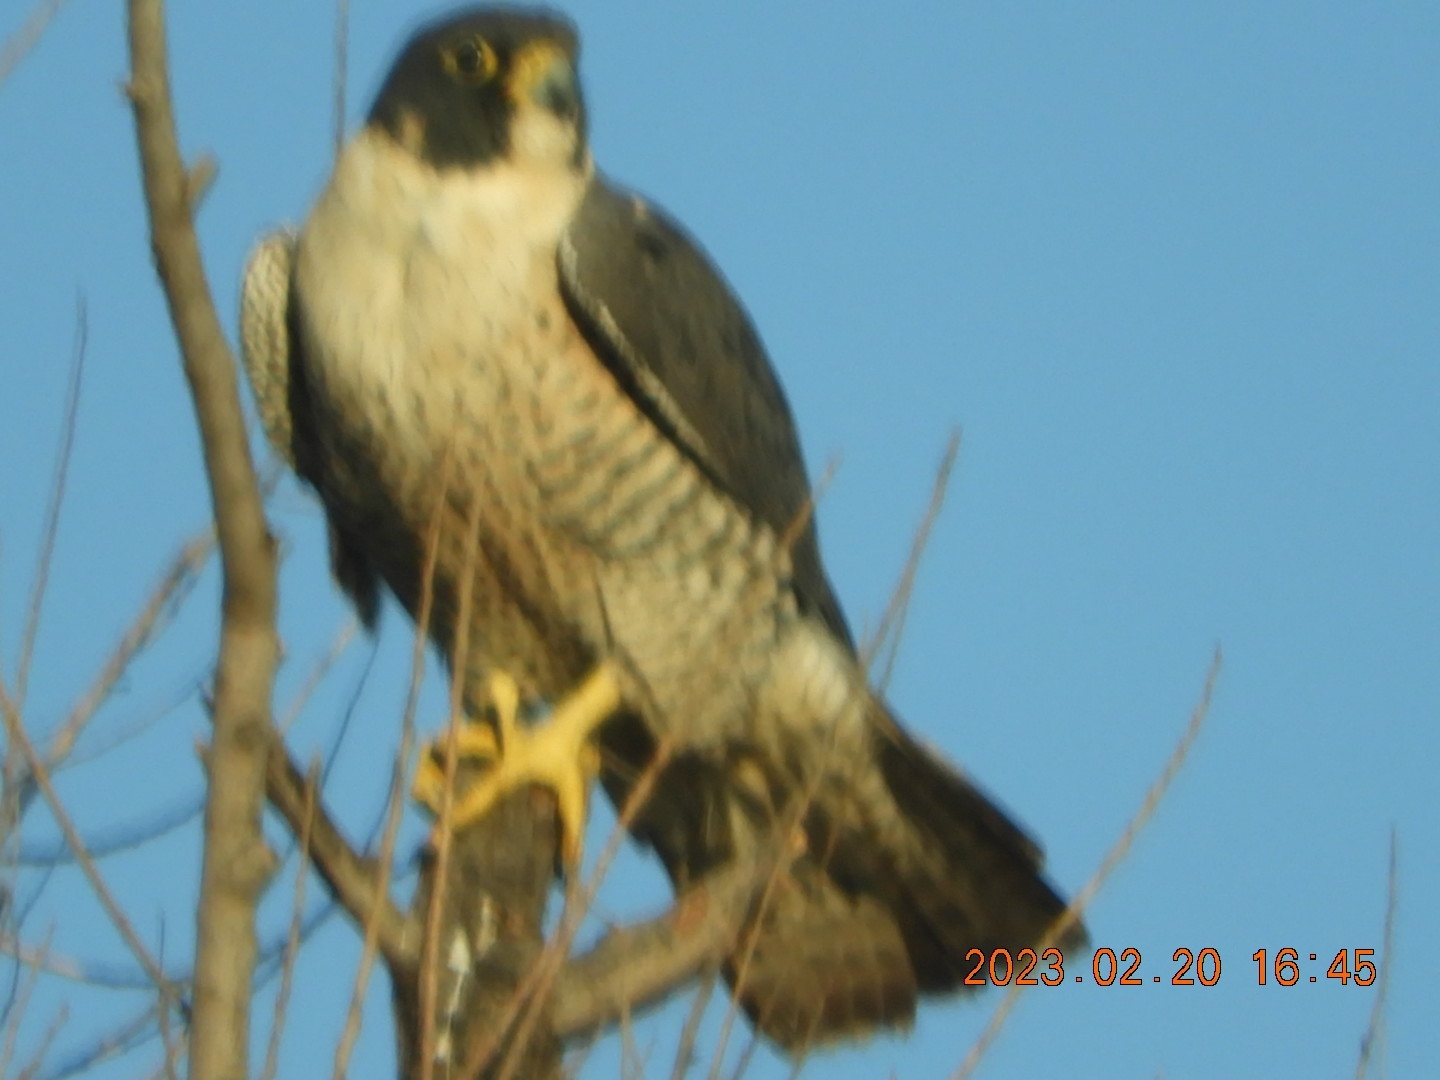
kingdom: Animalia
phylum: Chordata
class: Aves
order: Falconiformes
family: Falconidae
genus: Falco
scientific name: Falco peregrinus
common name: Peregrine falcon
